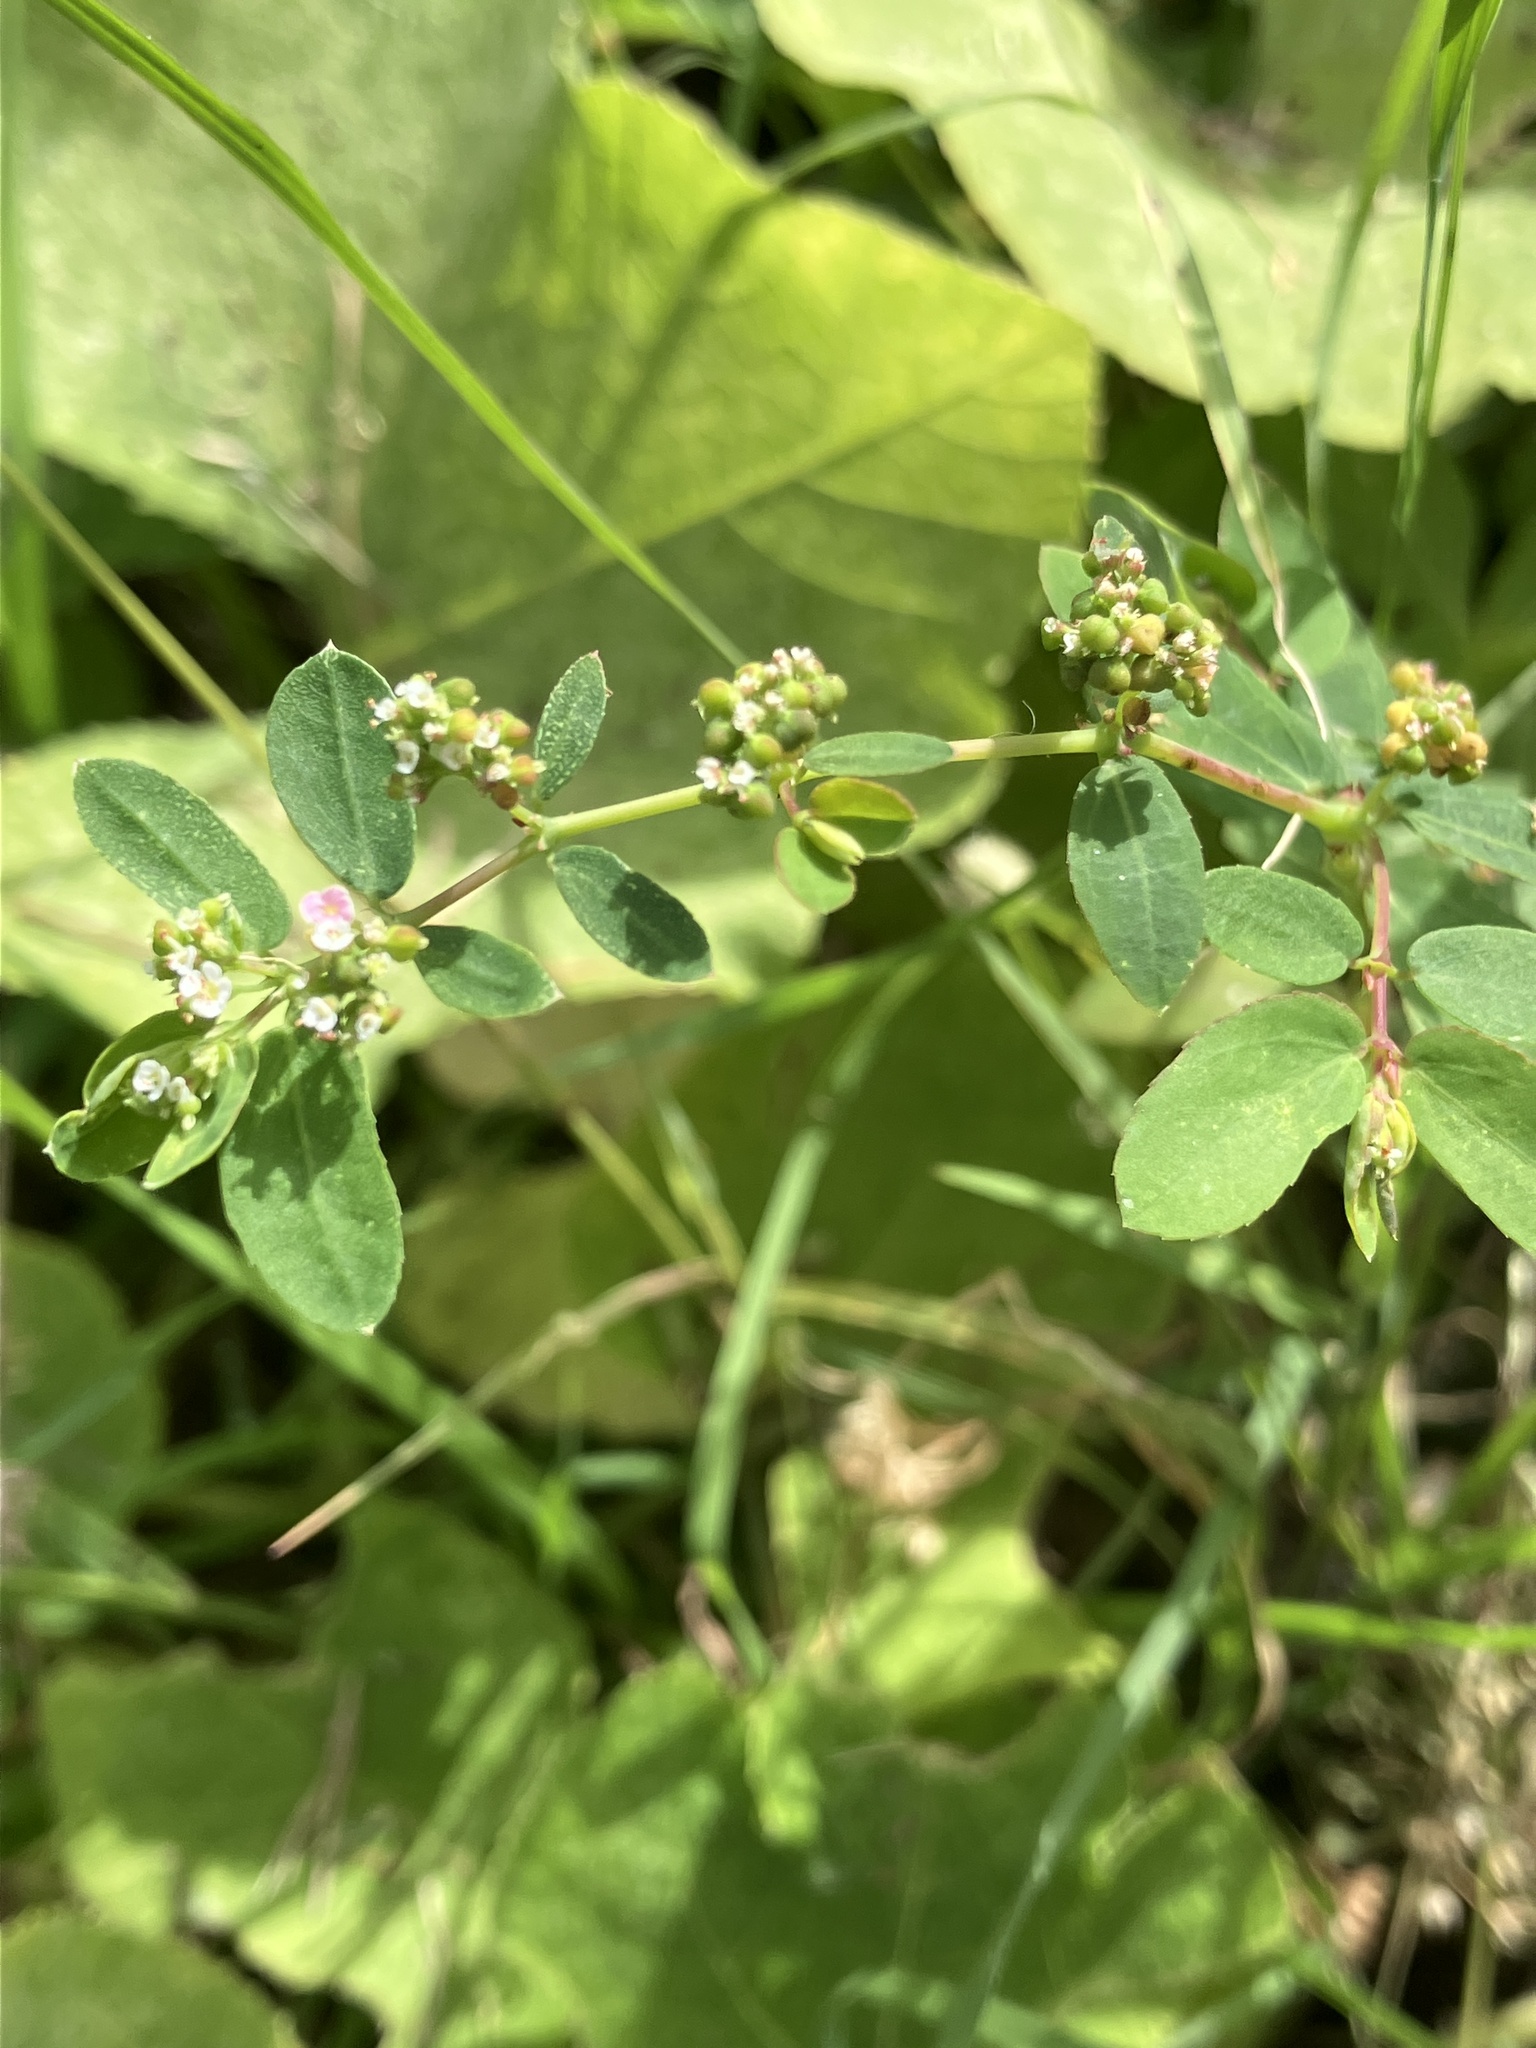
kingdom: Plantae
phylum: Tracheophyta
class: Magnoliopsida
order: Malpighiales
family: Euphorbiaceae
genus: Euphorbia
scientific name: Euphorbia hypericifolia
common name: Graceful sandmat
